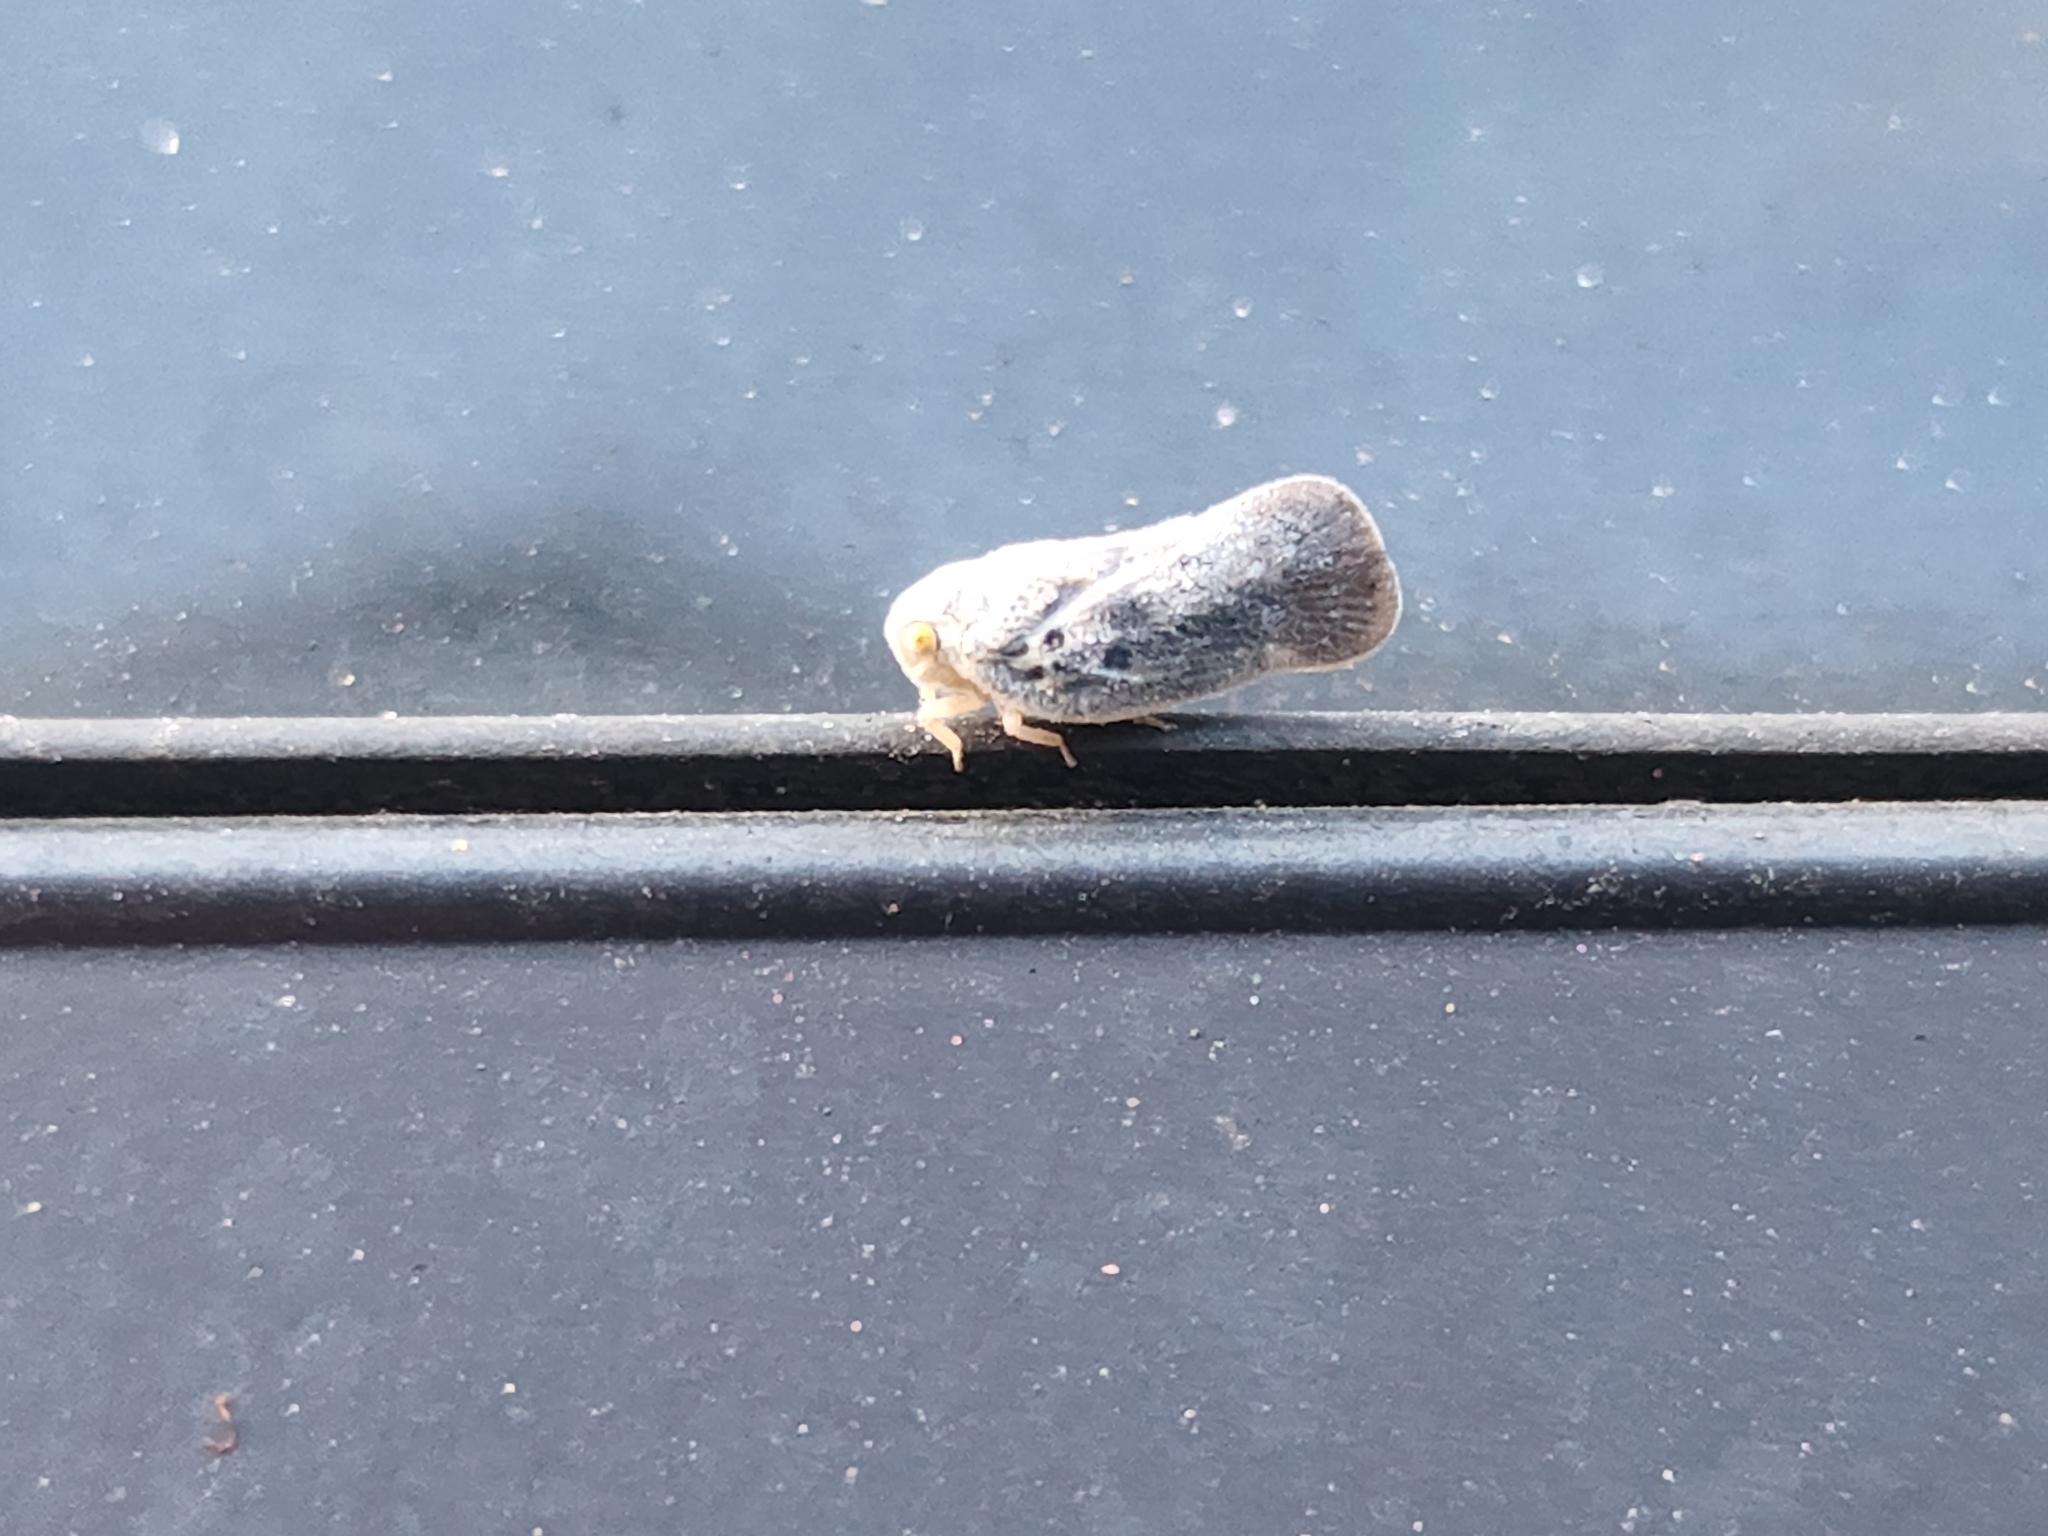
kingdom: Animalia
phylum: Arthropoda
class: Insecta
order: Hemiptera
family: Flatidae
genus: Metcalfa
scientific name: Metcalfa pruinosa
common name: Citrus flatid planthopper
